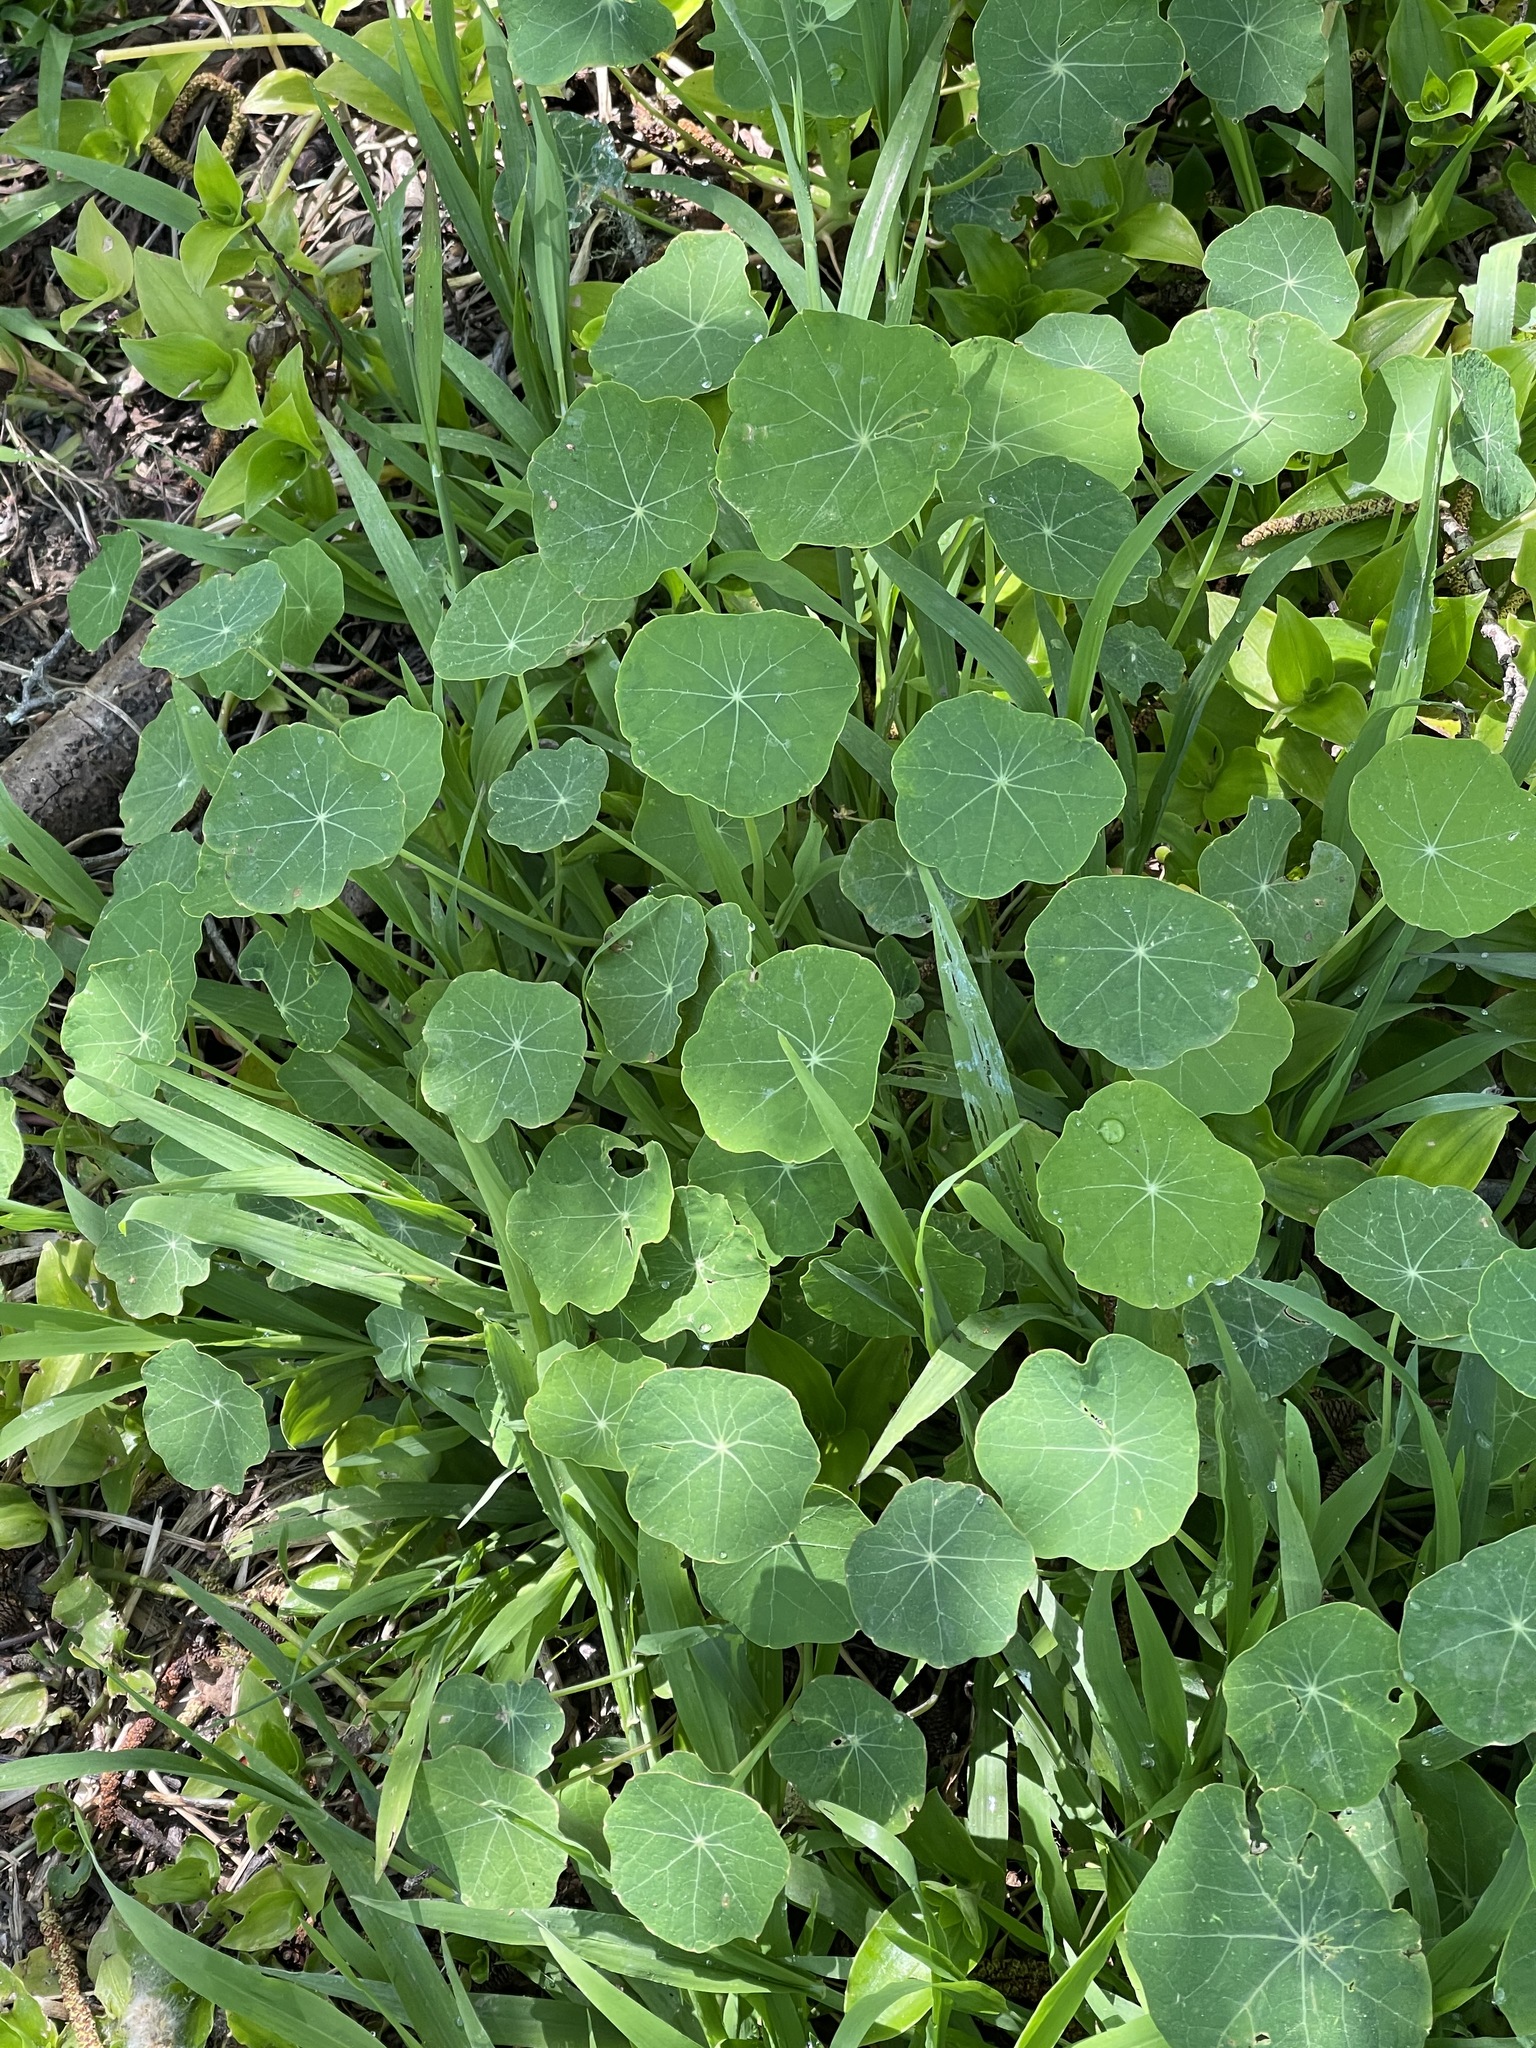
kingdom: Plantae
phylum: Tracheophyta
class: Magnoliopsida
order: Brassicales
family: Tropaeolaceae
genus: Tropaeolum
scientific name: Tropaeolum majus
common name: Nasturtium
